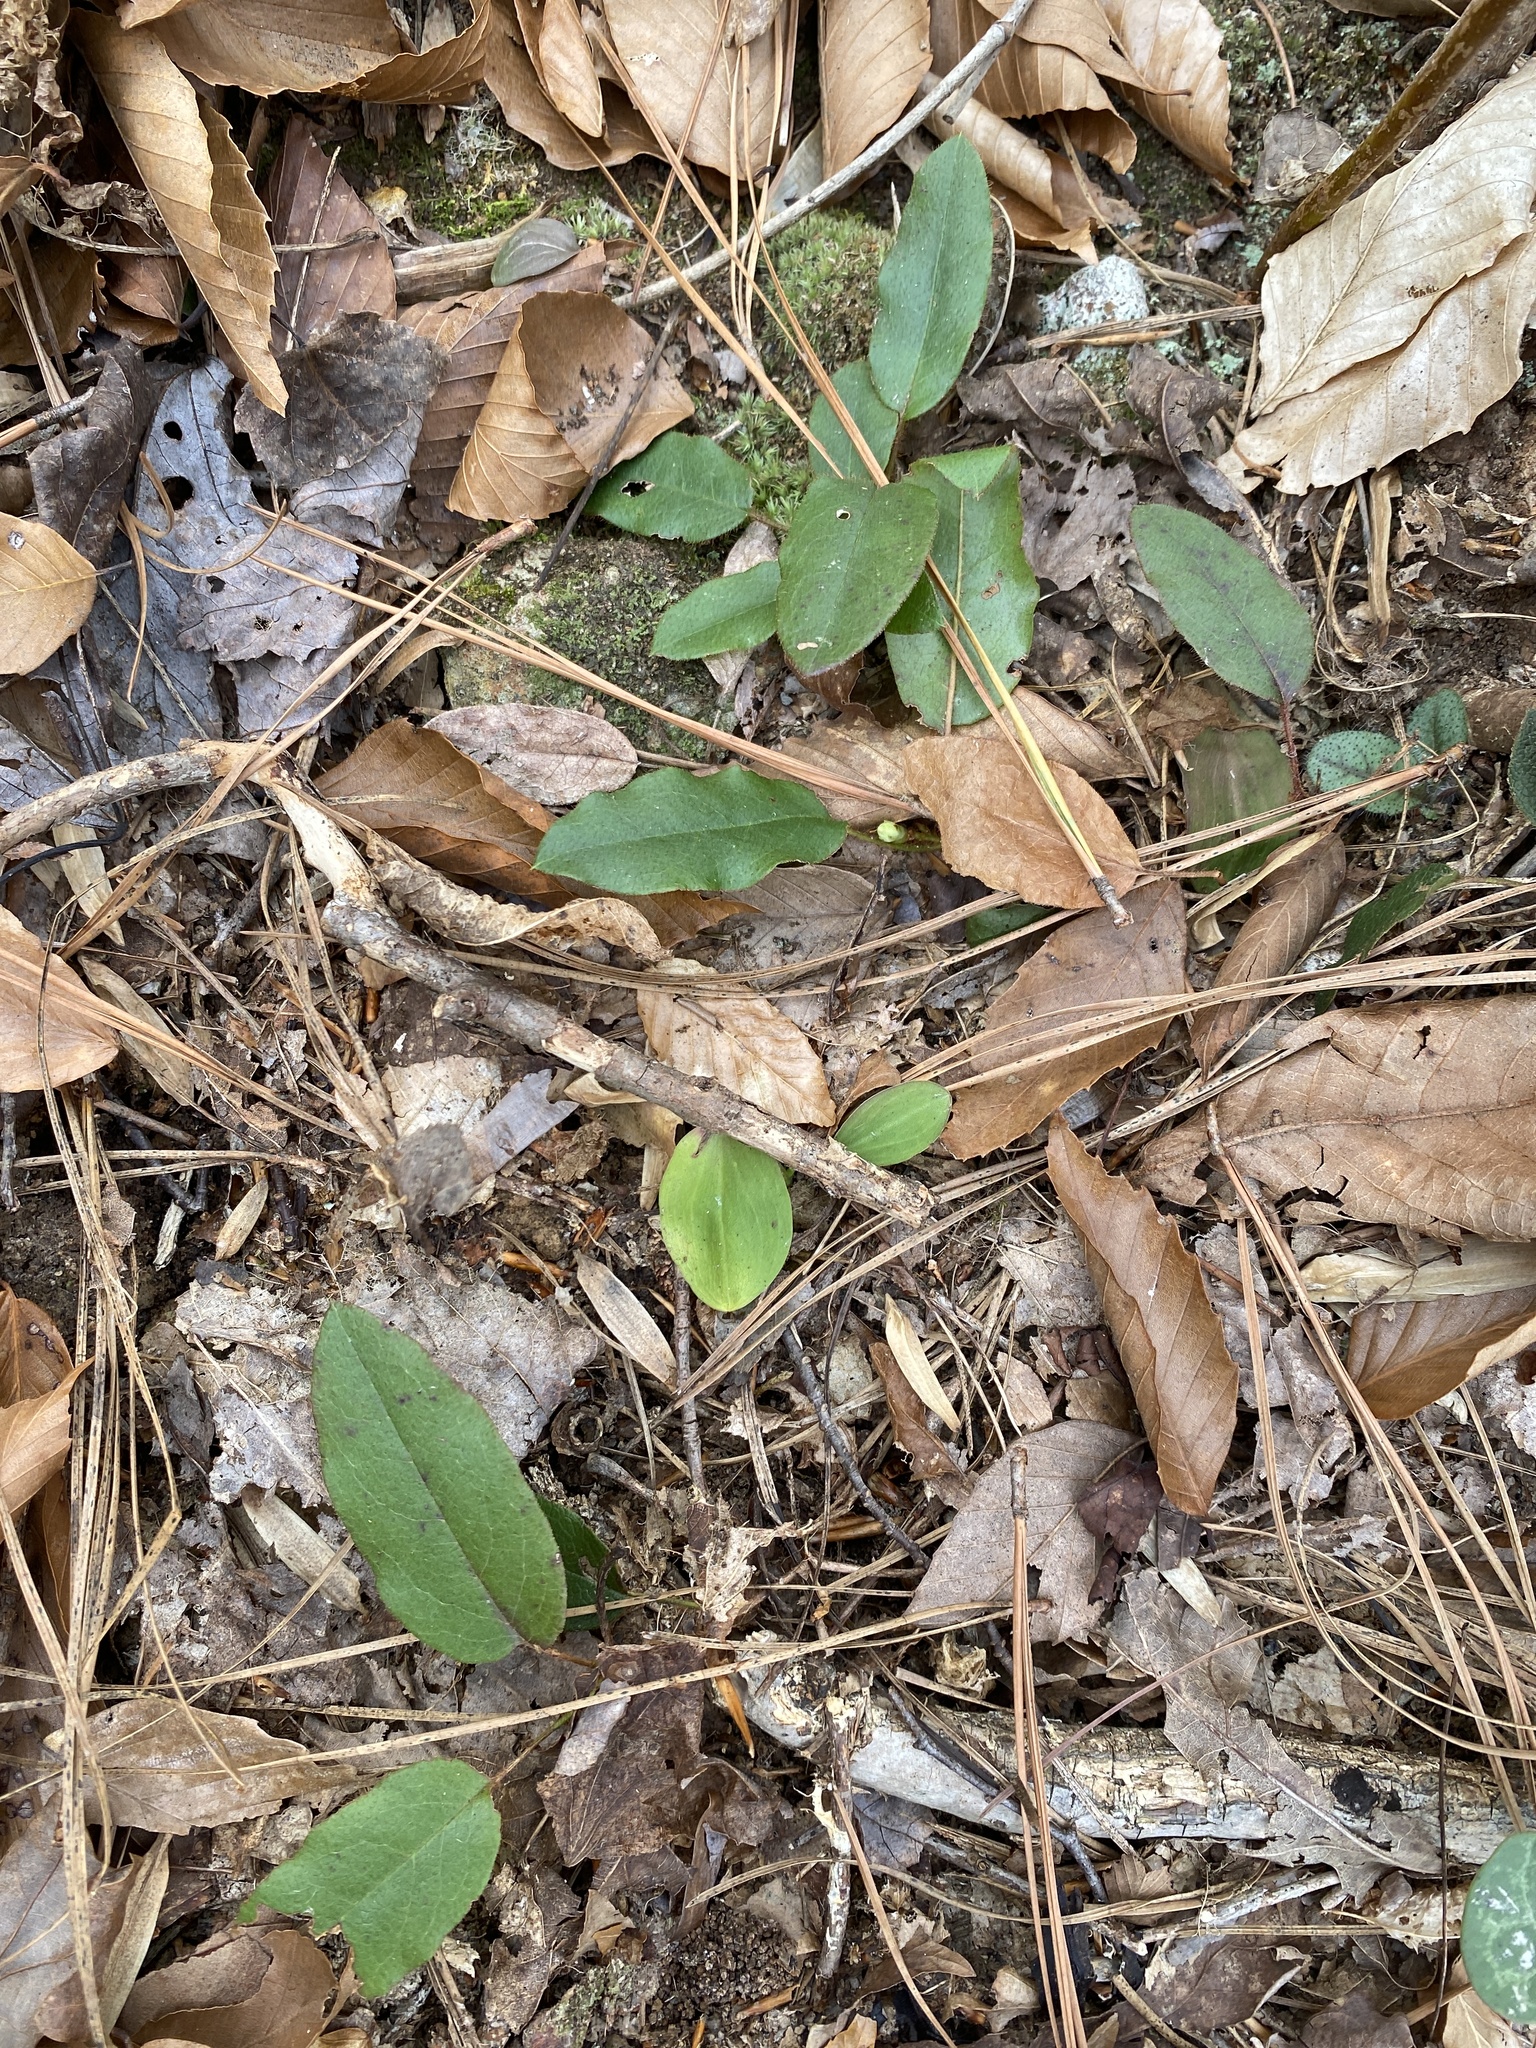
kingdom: Plantae
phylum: Tracheophyta
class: Magnoliopsida
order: Ericales
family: Ericaceae
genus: Epigaea
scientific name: Epigaea repens
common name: Gravelroot
